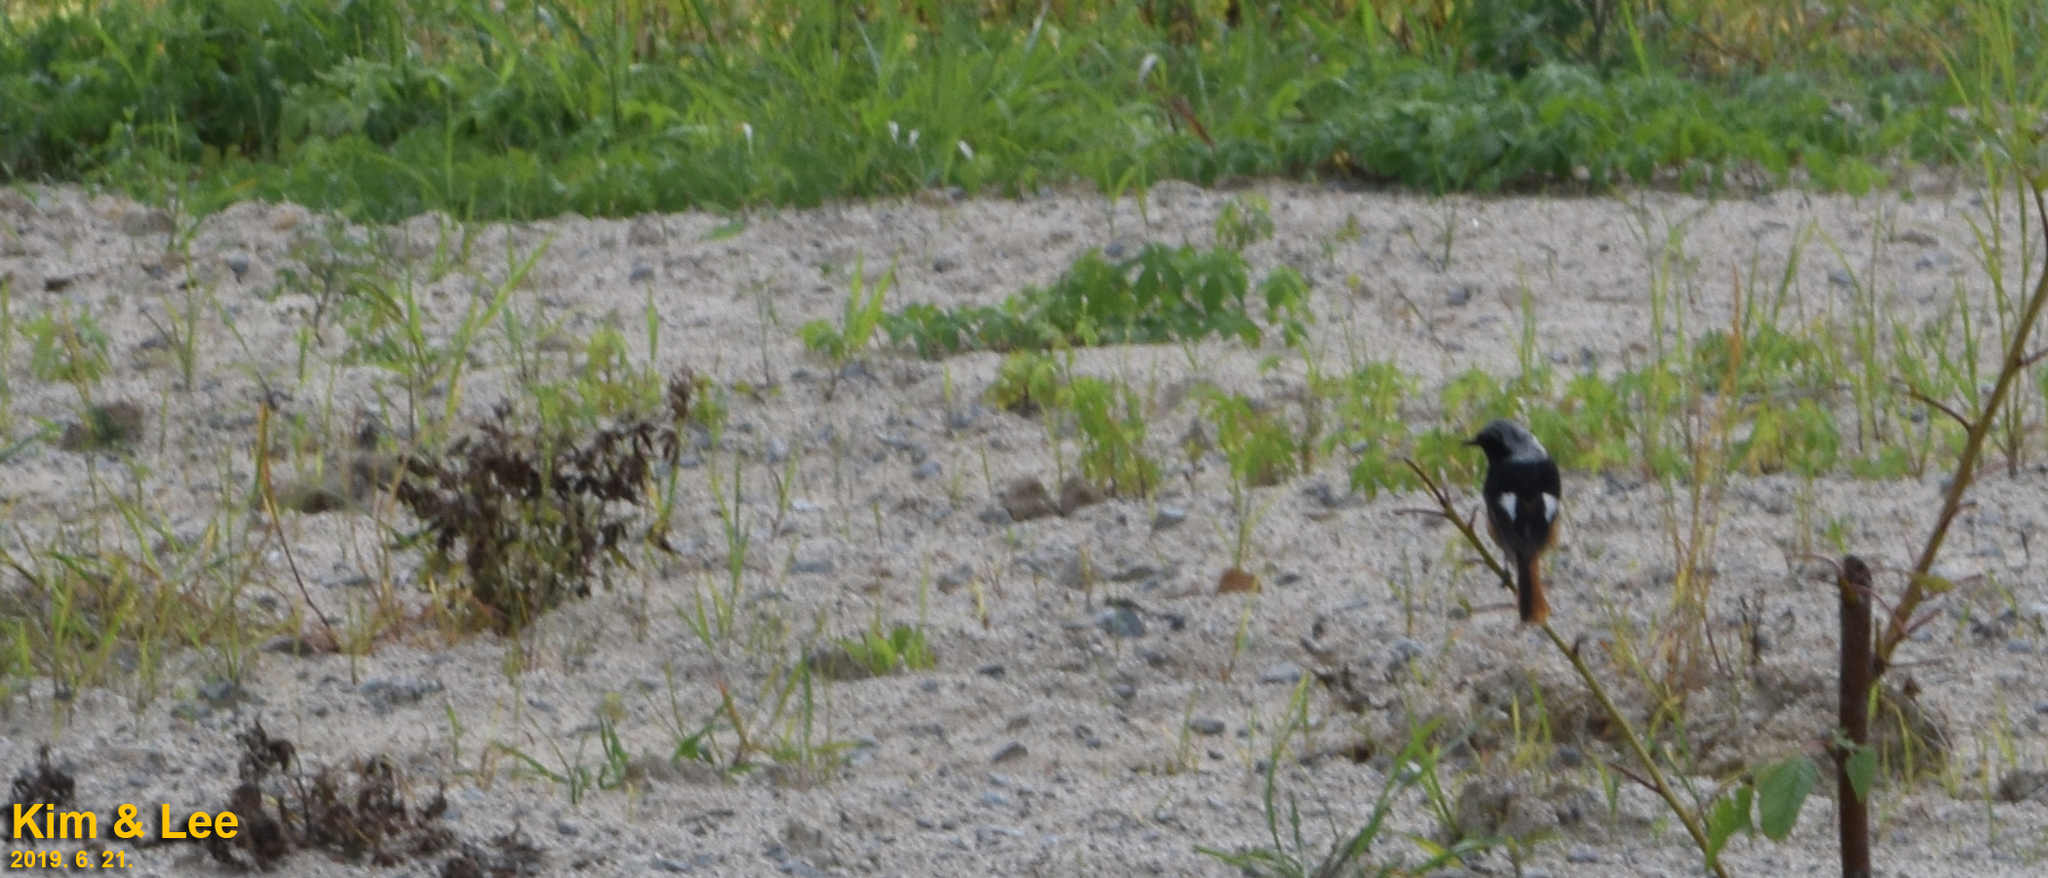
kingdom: Animalia
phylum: Chordata
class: Aves
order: Passeriformes
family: Muscicapidae
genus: Phoenicurus
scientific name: Phoenicurus auroreus
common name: Daurian redstart
